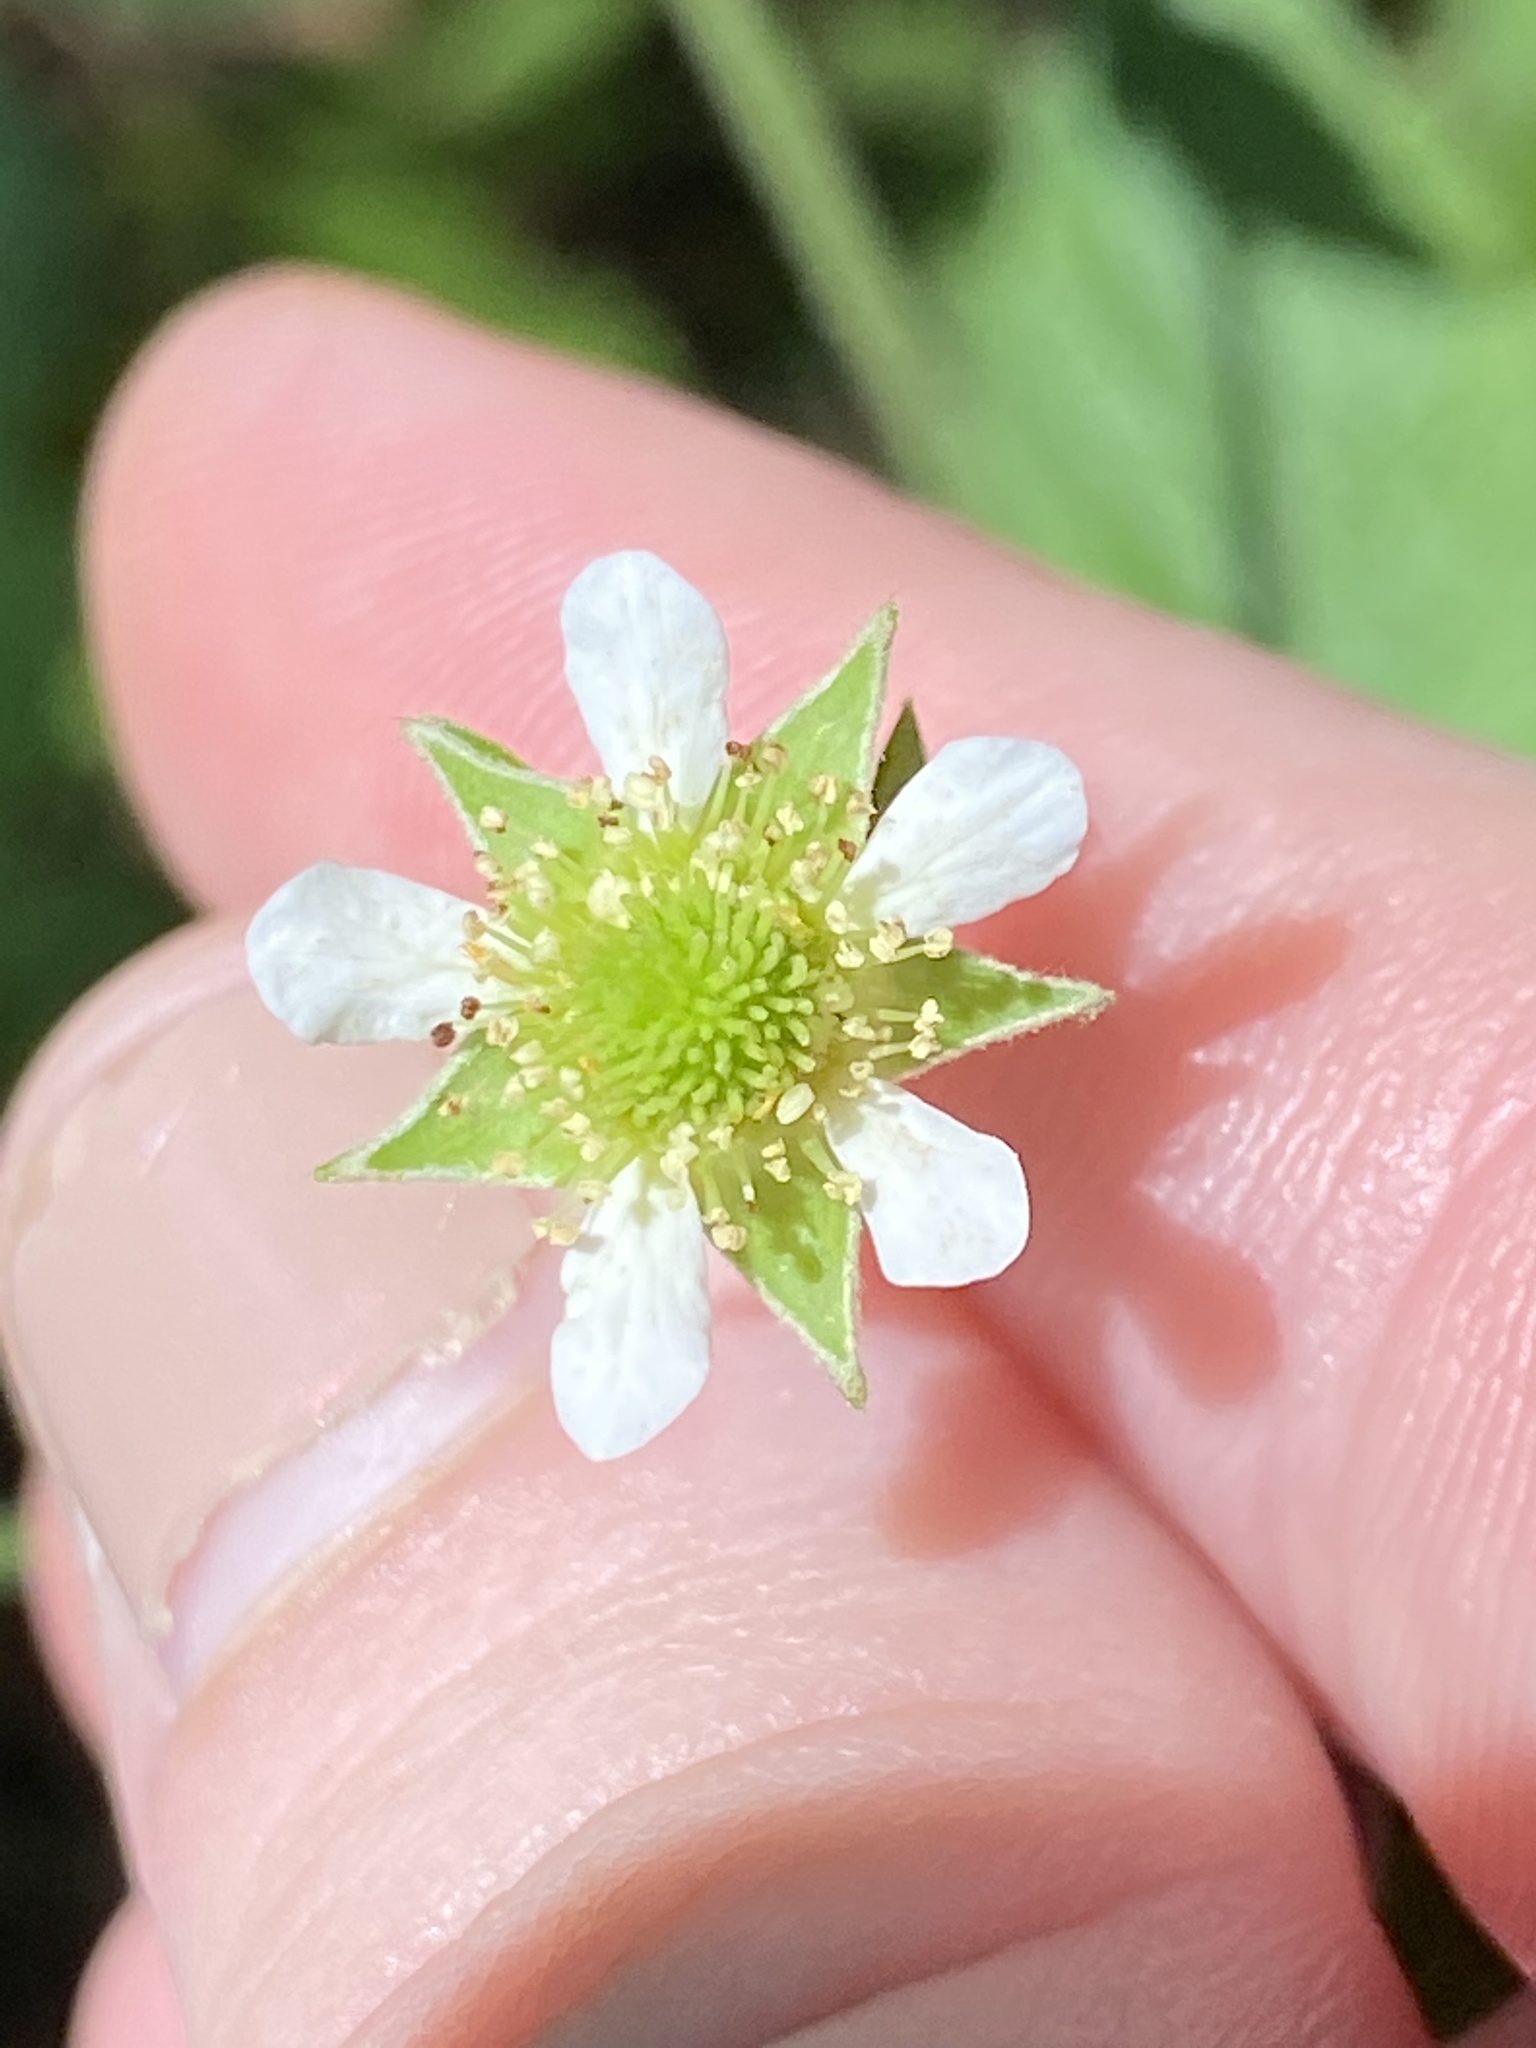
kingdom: Plantae
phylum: Tracheophyta
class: Magnoliopsida
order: Rosales
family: Rosaceae
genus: Geum
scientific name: Geum canadense
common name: White avens
